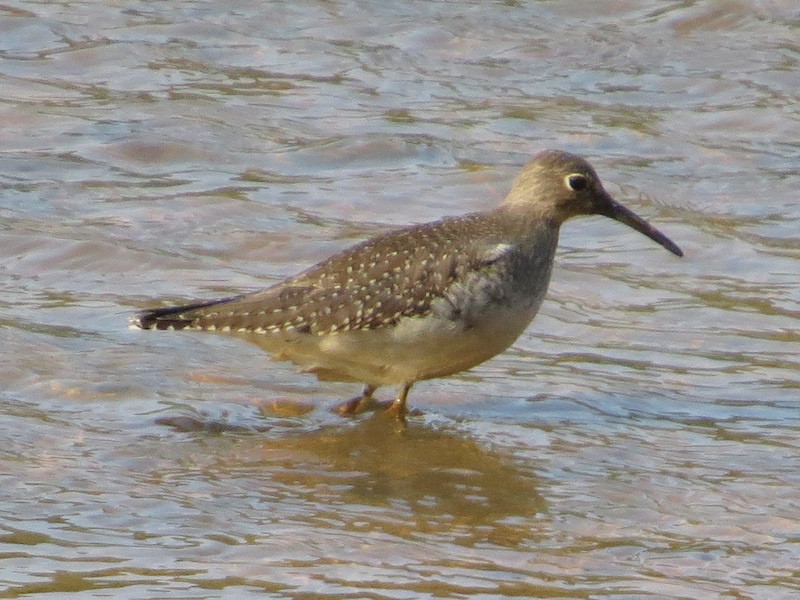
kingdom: Animalia
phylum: Chordata
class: Aves
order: Charadriiformes
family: Scolopacidae
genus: Tringa
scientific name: Tringa solitaria
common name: Solitary sandpiper
